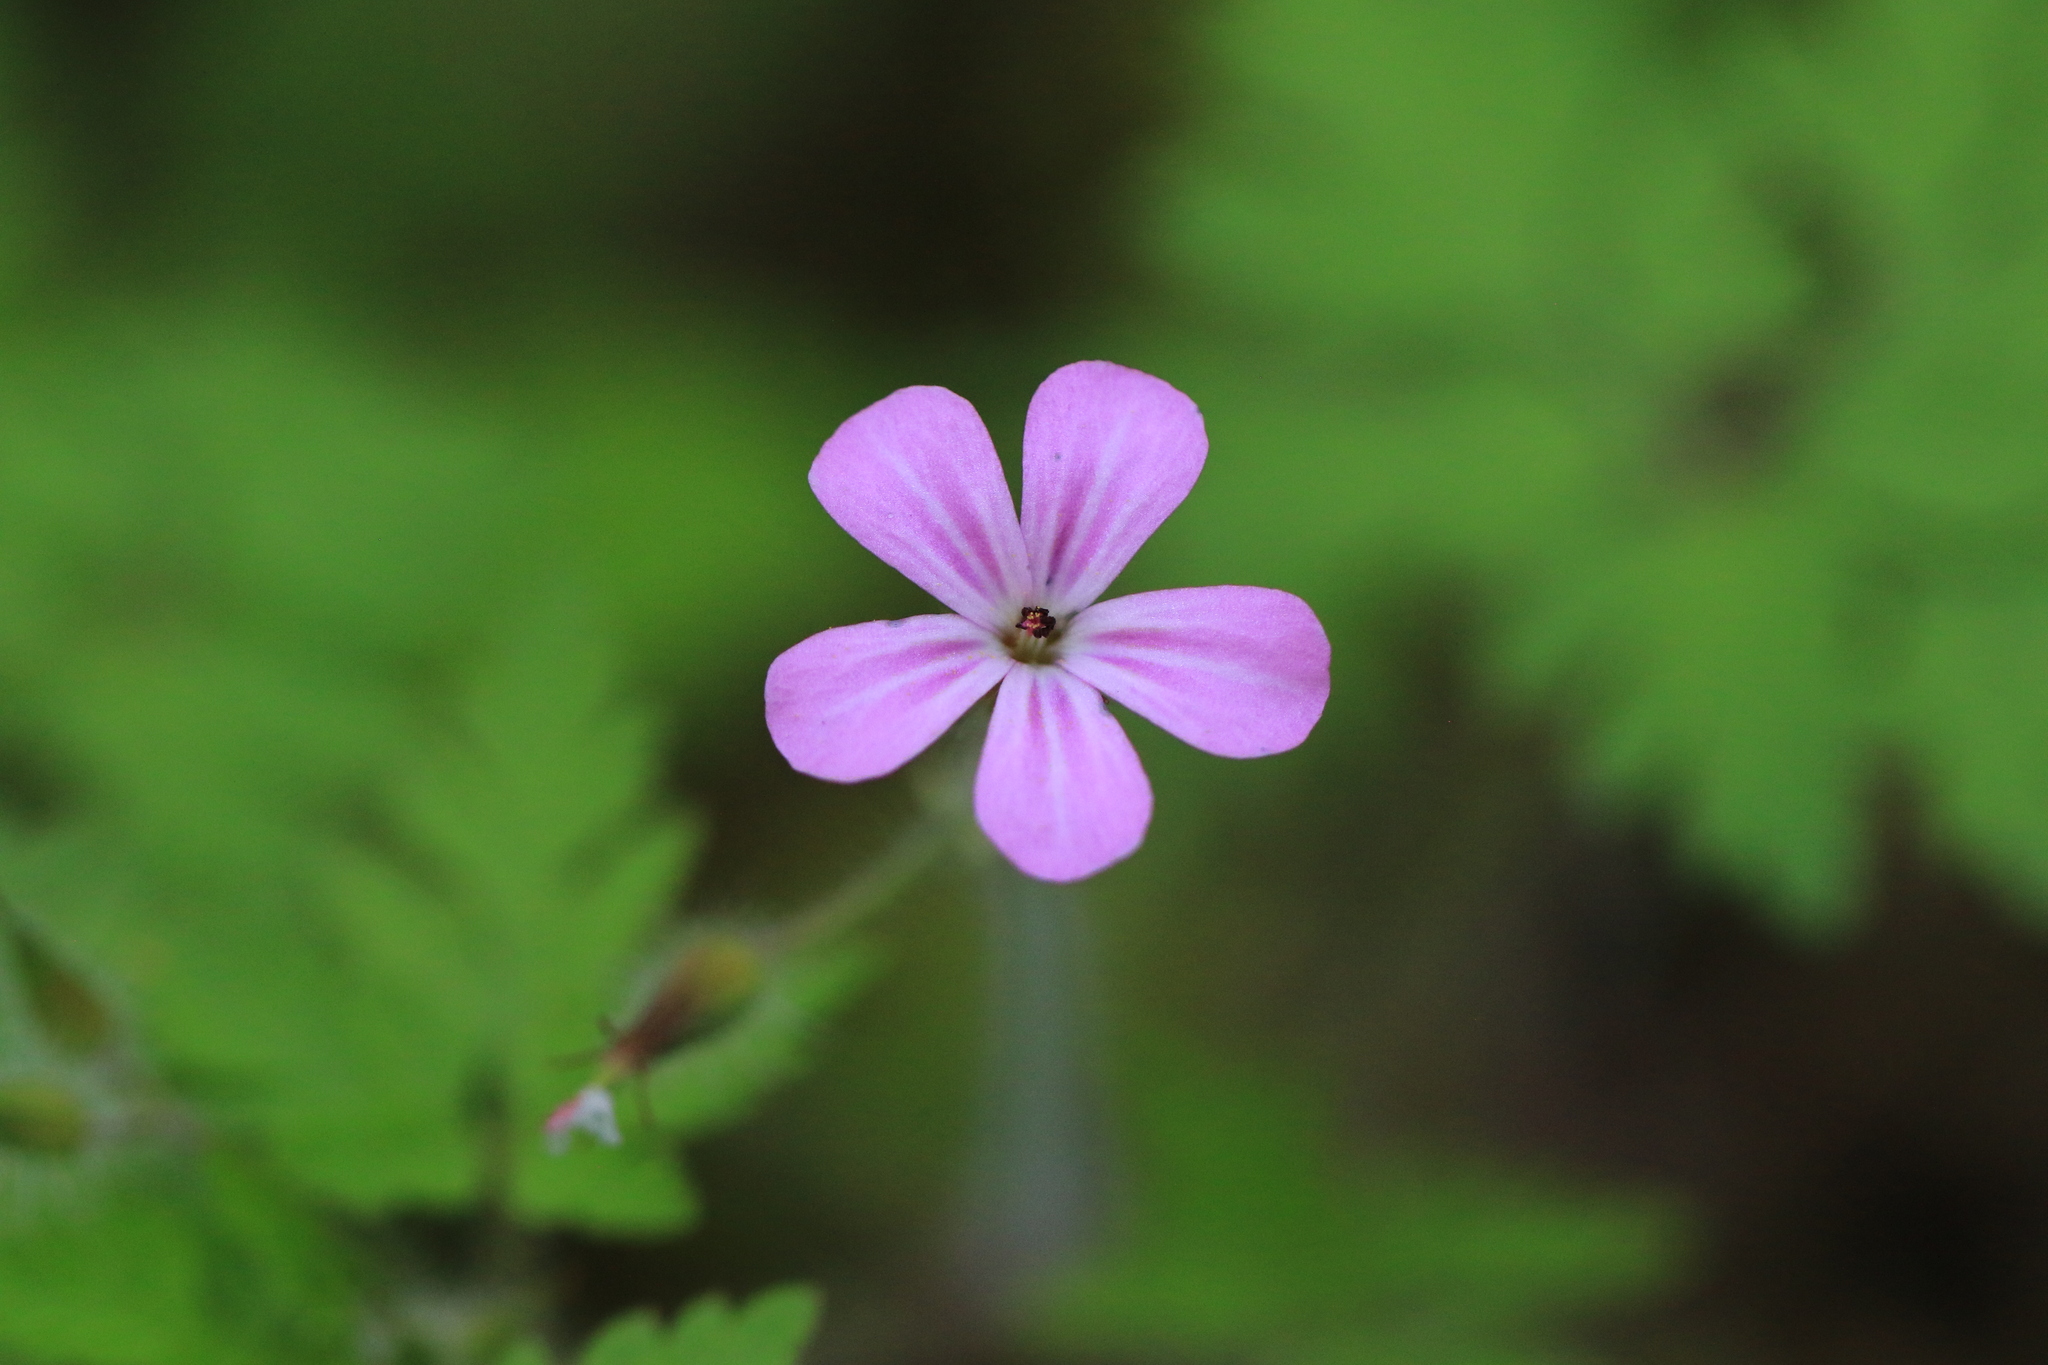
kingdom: Plantae
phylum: Tracheophyta
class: Magnoliopsida
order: Geraniales
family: Geraniaceae
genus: Geranium
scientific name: Geranium robertianum
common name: Herb-robert
